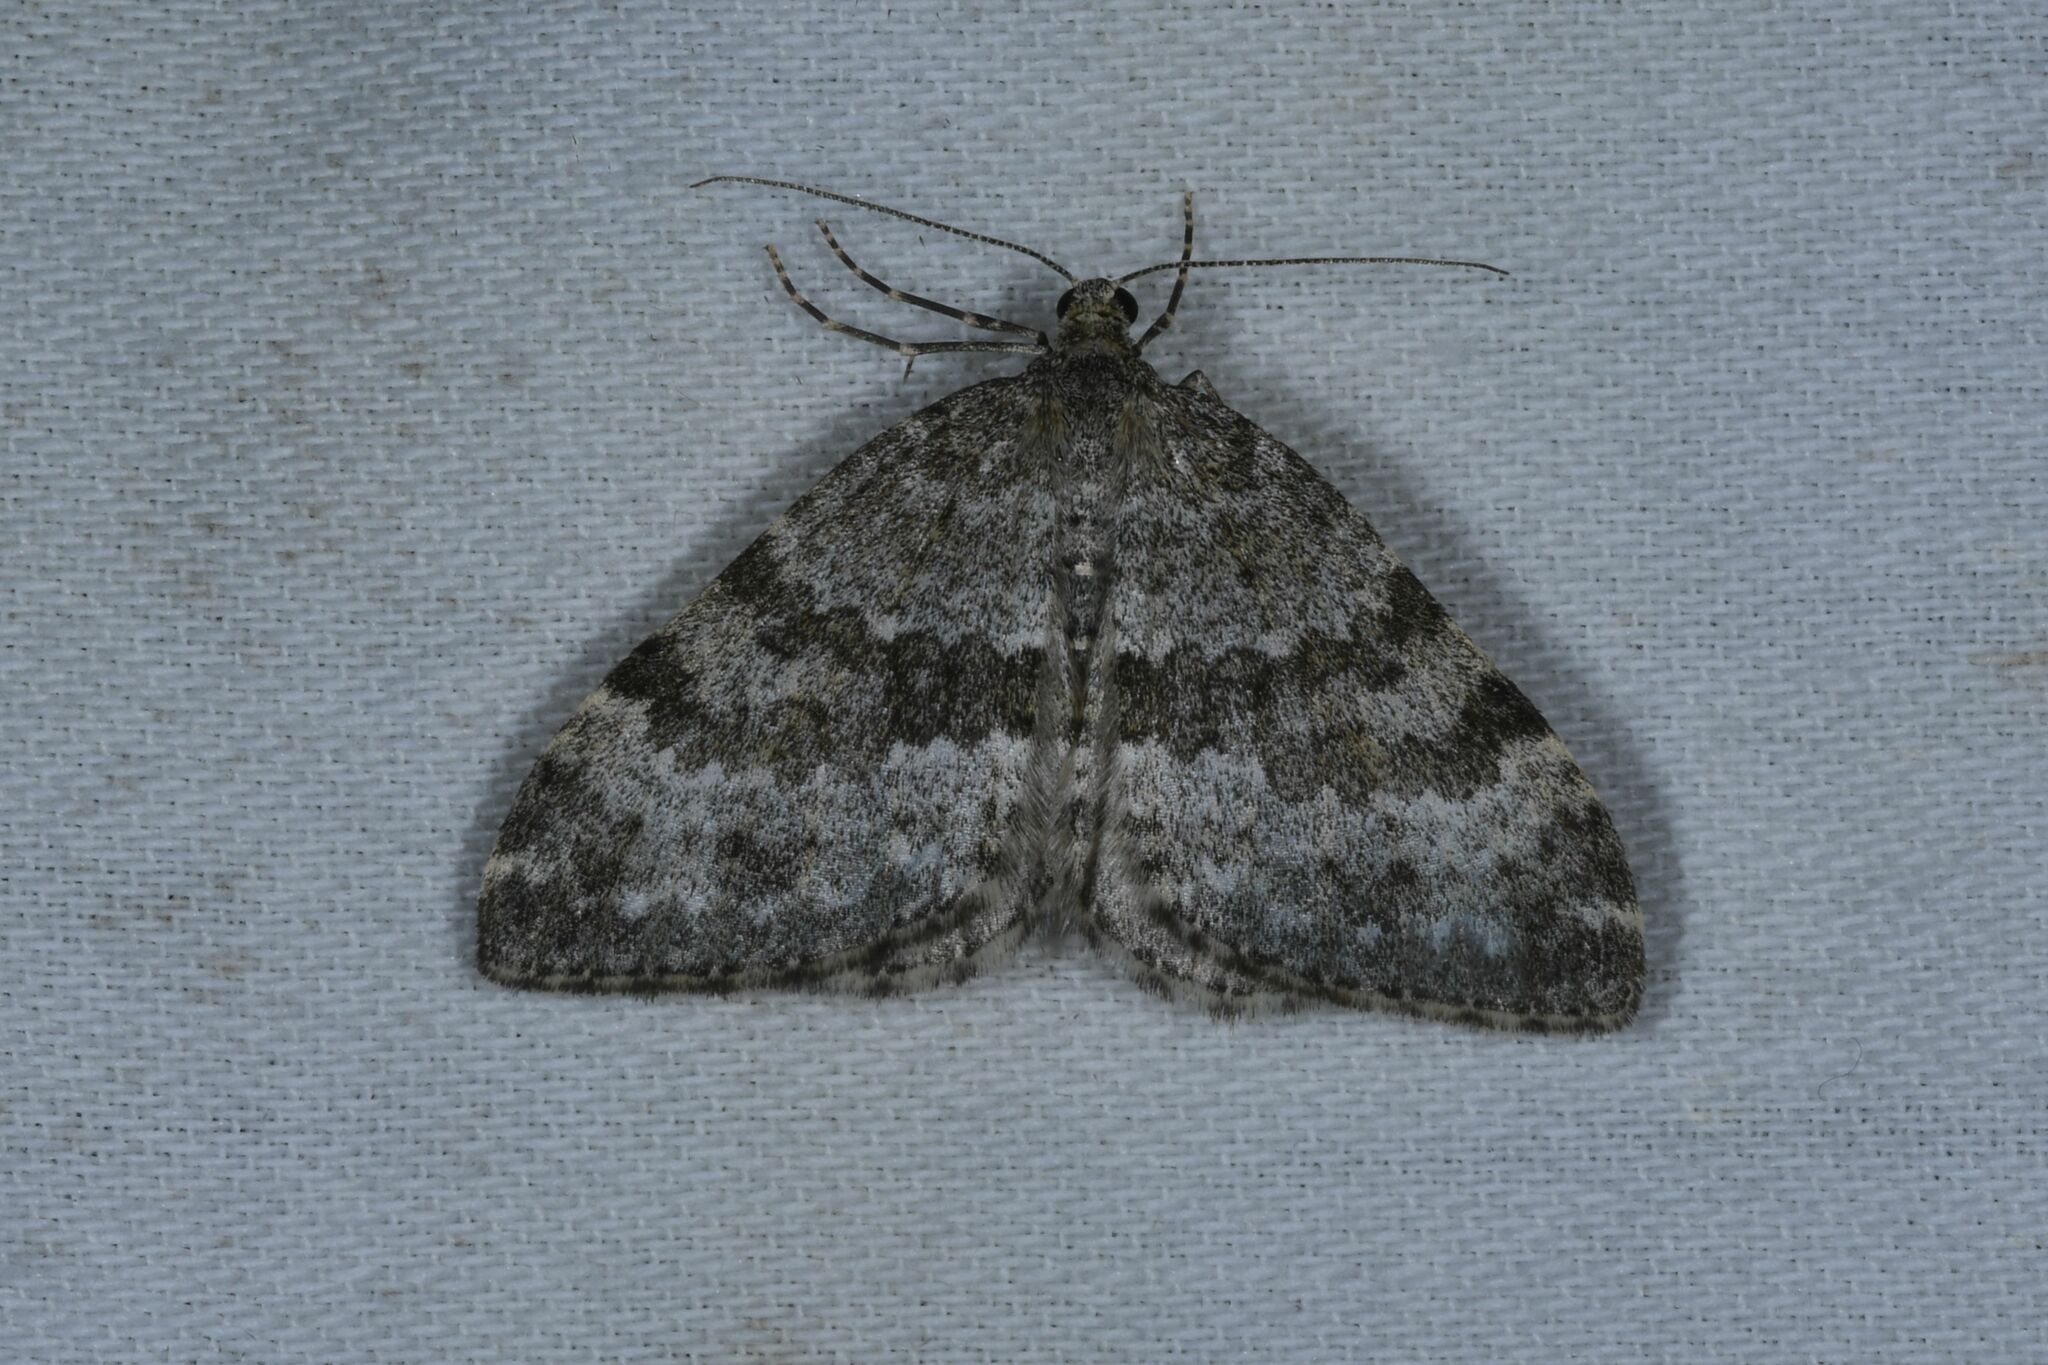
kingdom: Animalia
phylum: Arthropoda
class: Insecta
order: Lepidoptera
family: Geometridae
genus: Entephria
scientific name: Entephria caesiata
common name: Grey mountain moth
